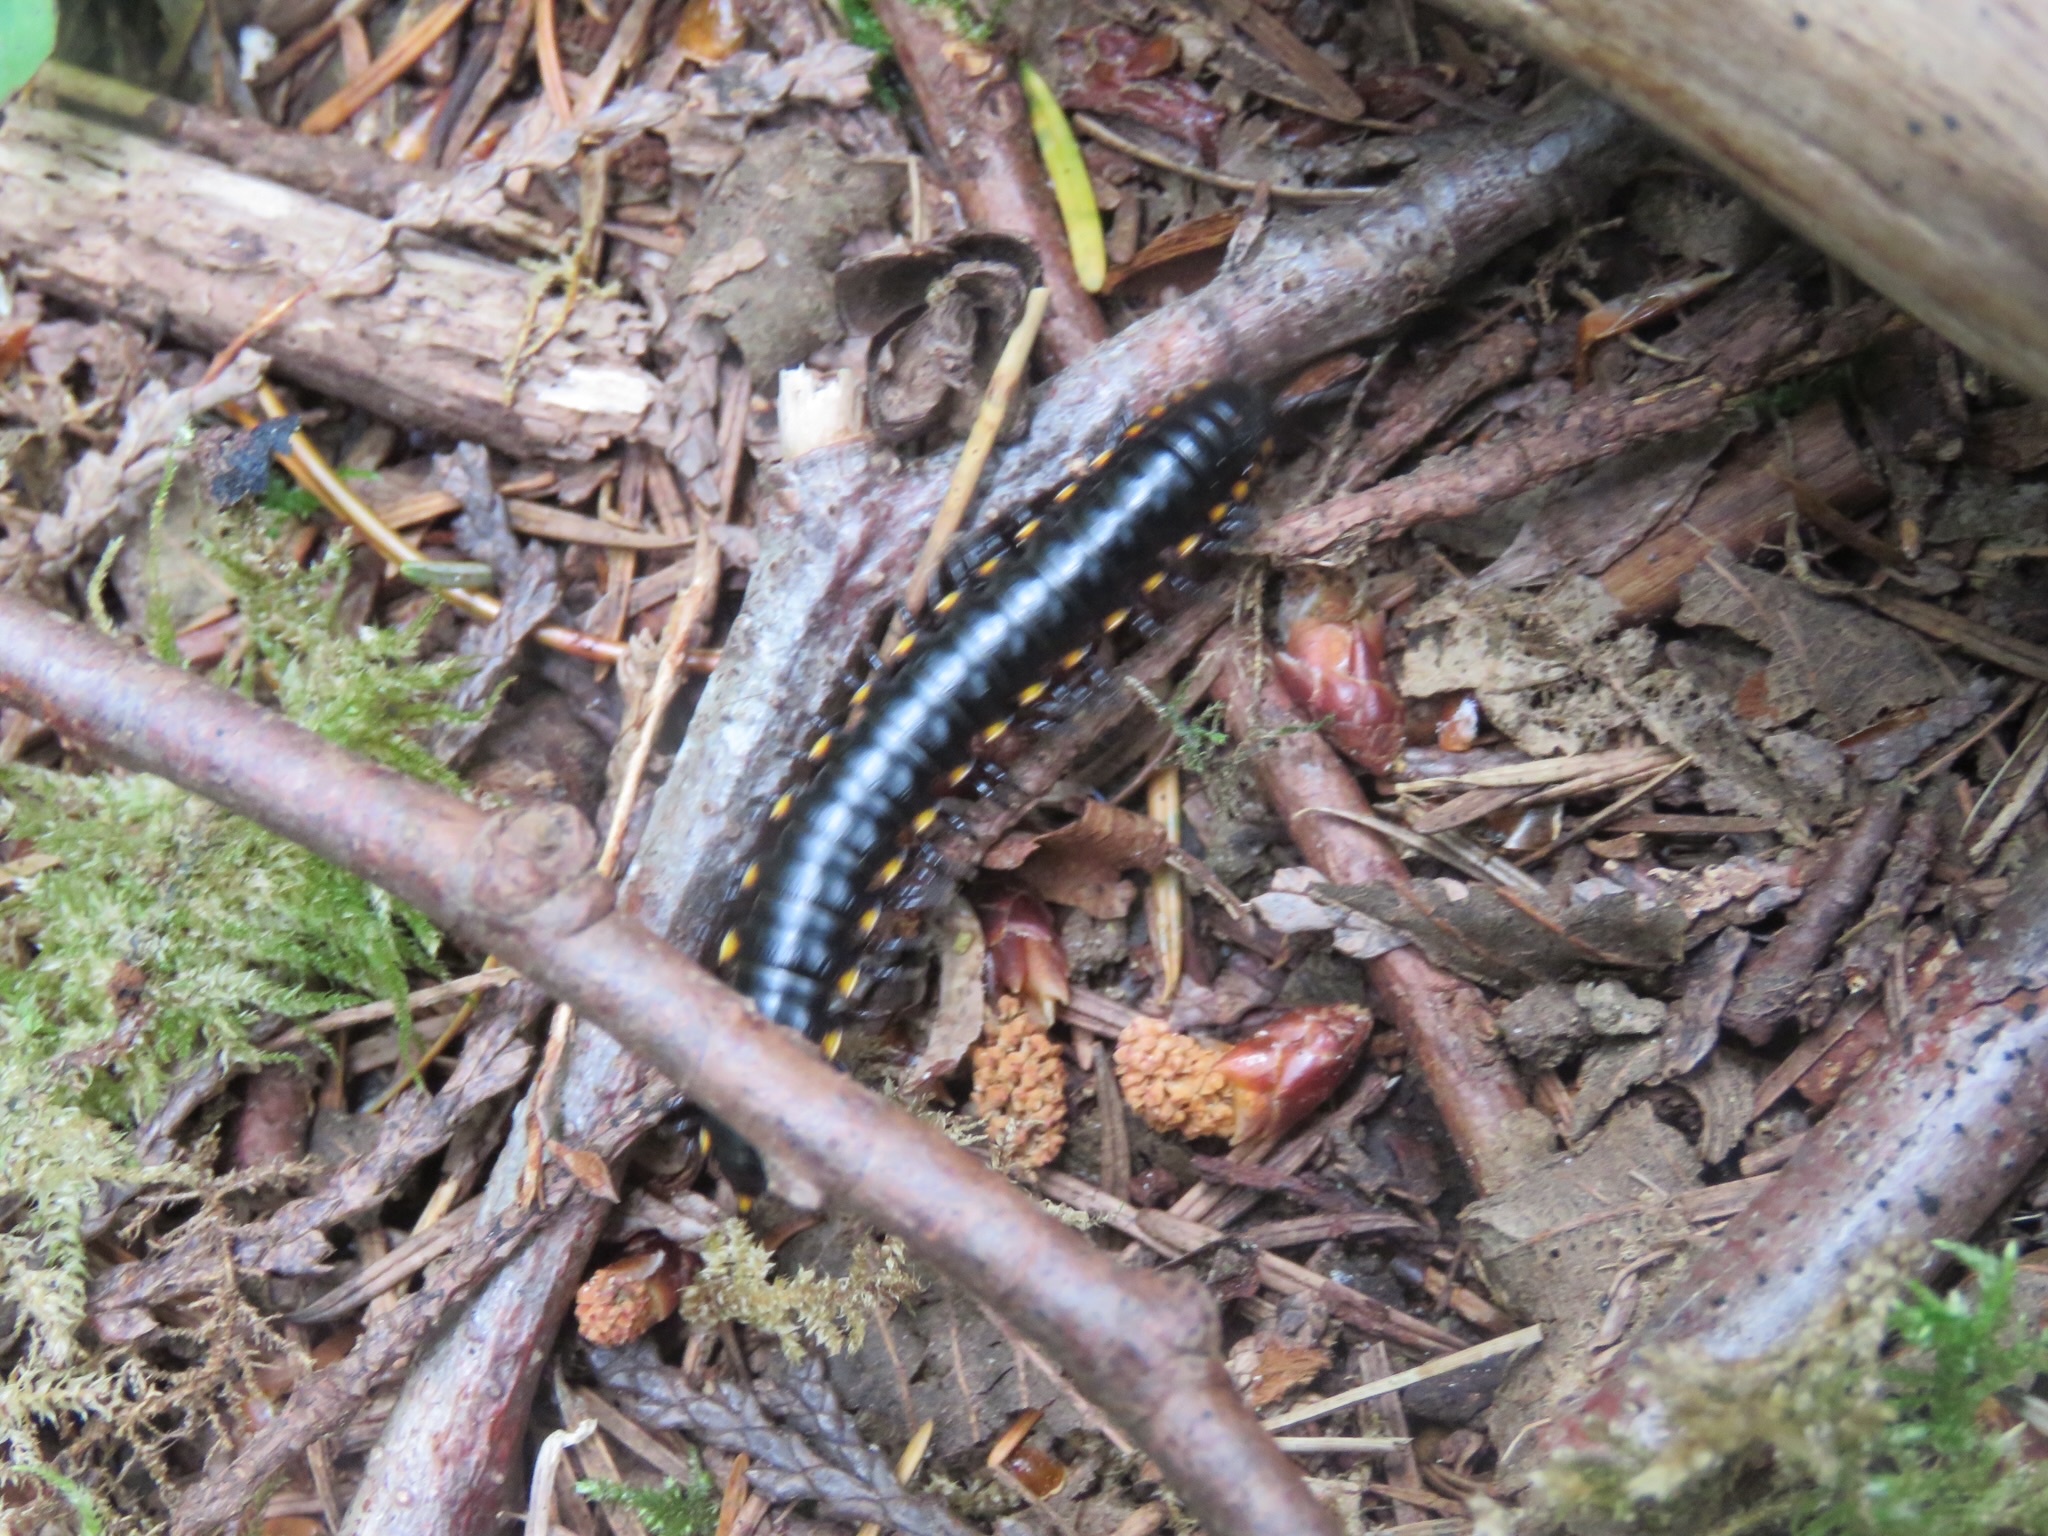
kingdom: Animalia
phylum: Arthropoda
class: Diplopoda
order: Polydesmida
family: Xystodesmidae
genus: Harpaphe
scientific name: Harpaphe haydeniana
